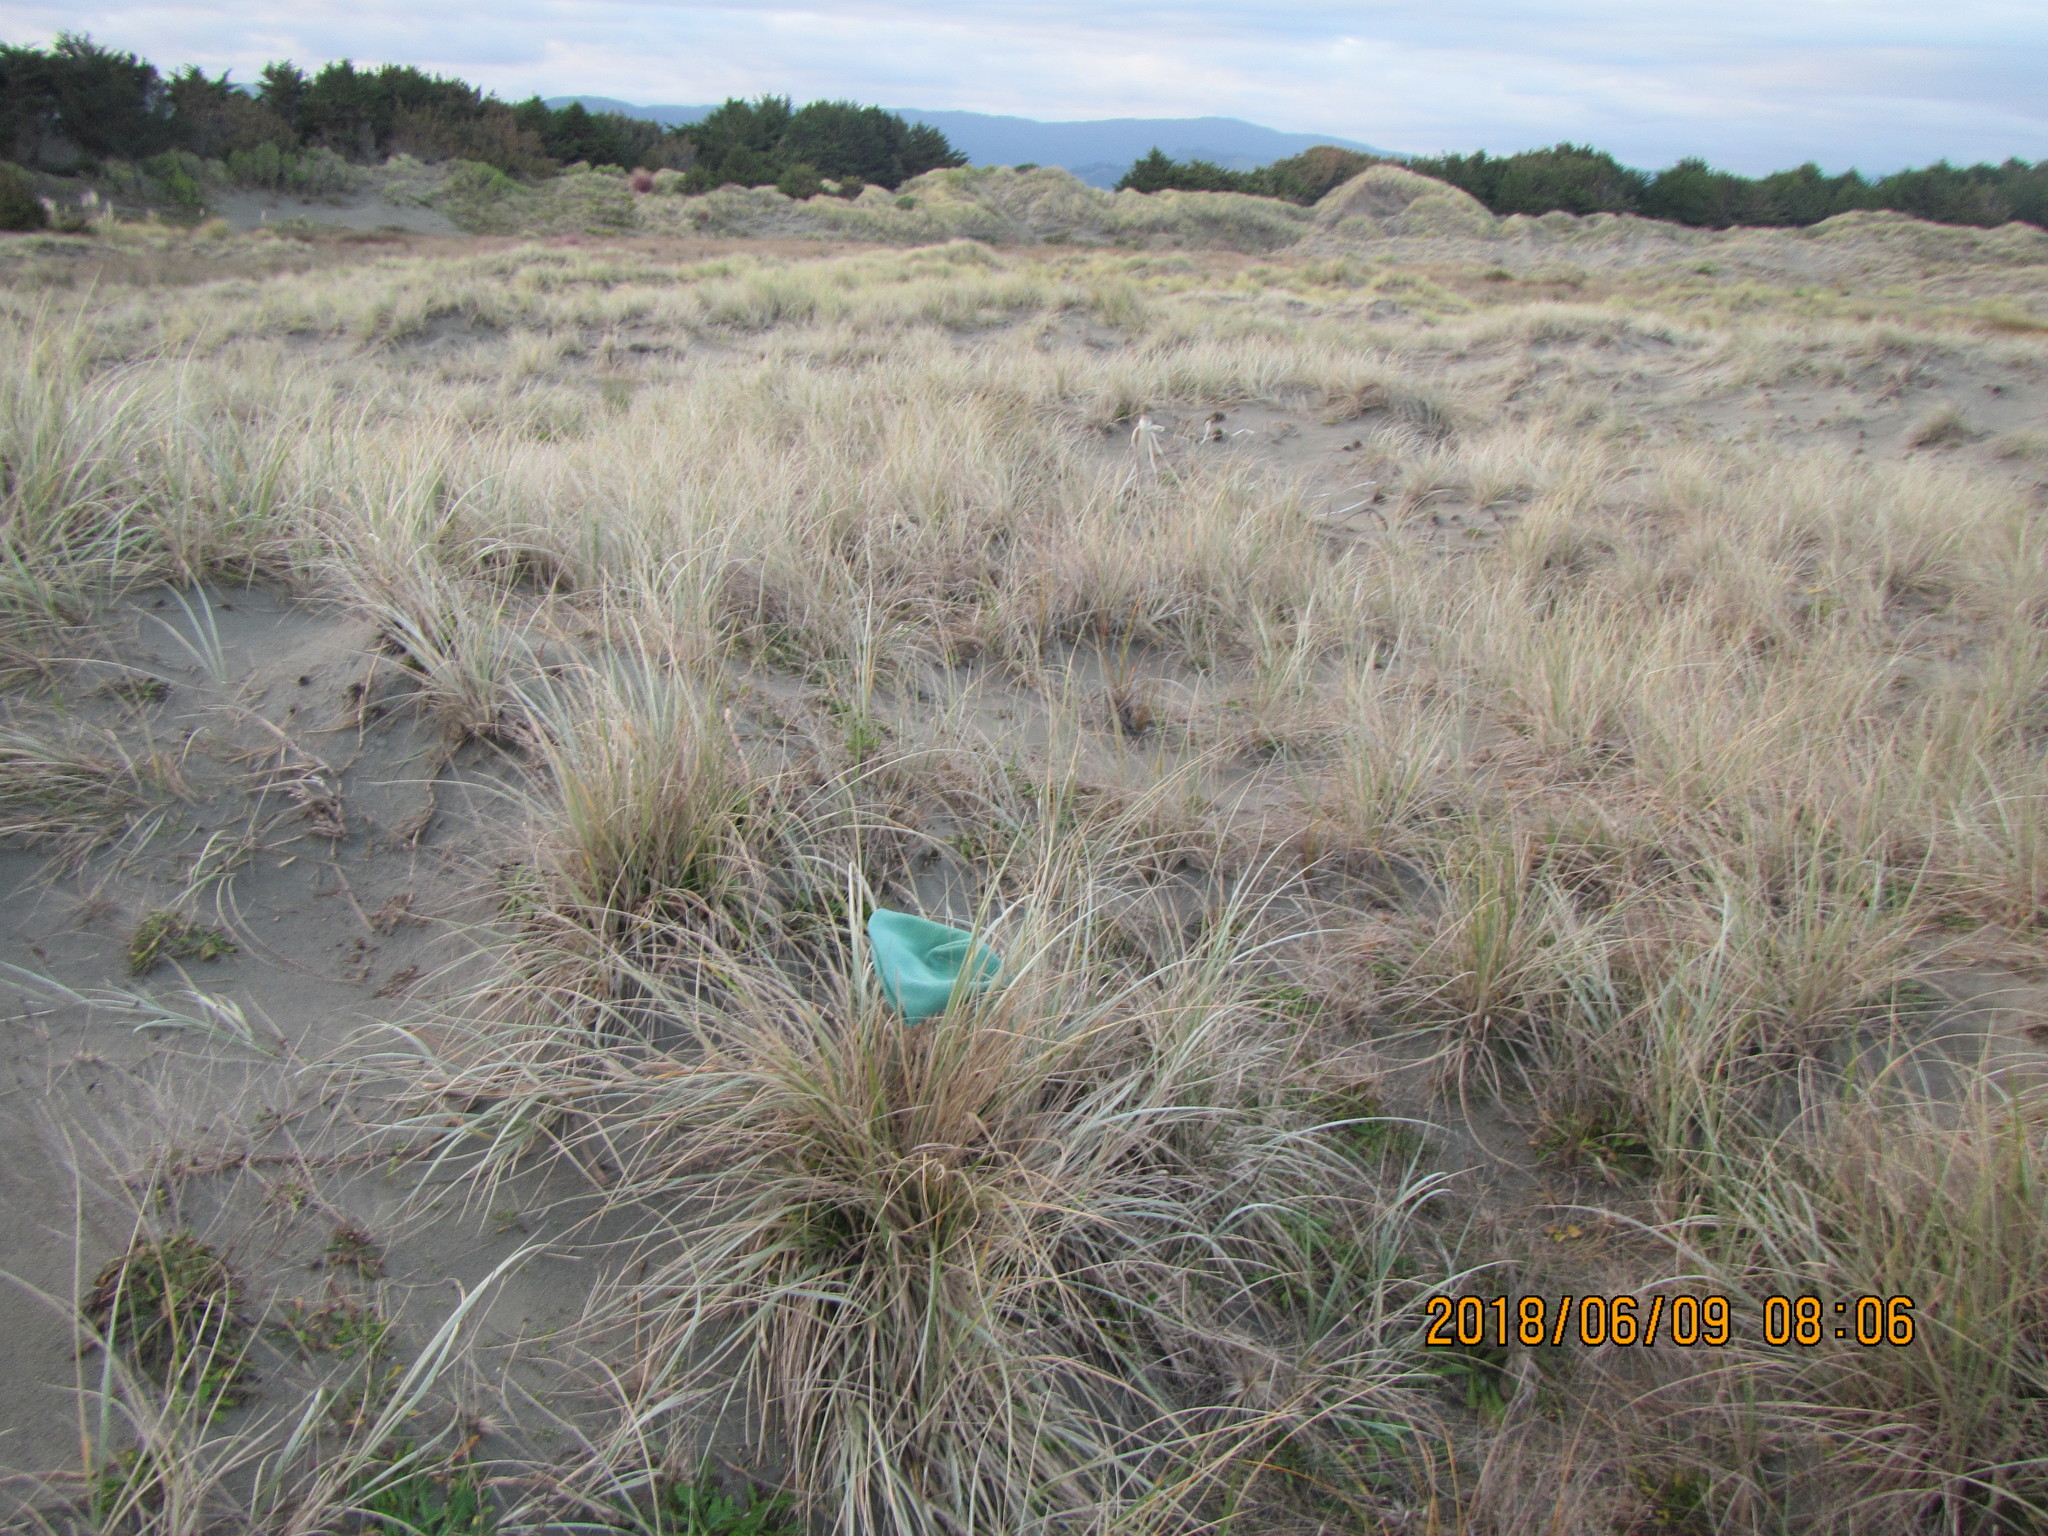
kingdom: Animalia
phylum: Arthropoda
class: Arachnida
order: Araneae
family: Thomisidae
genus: Sidymella
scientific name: Sidymella trapezia
